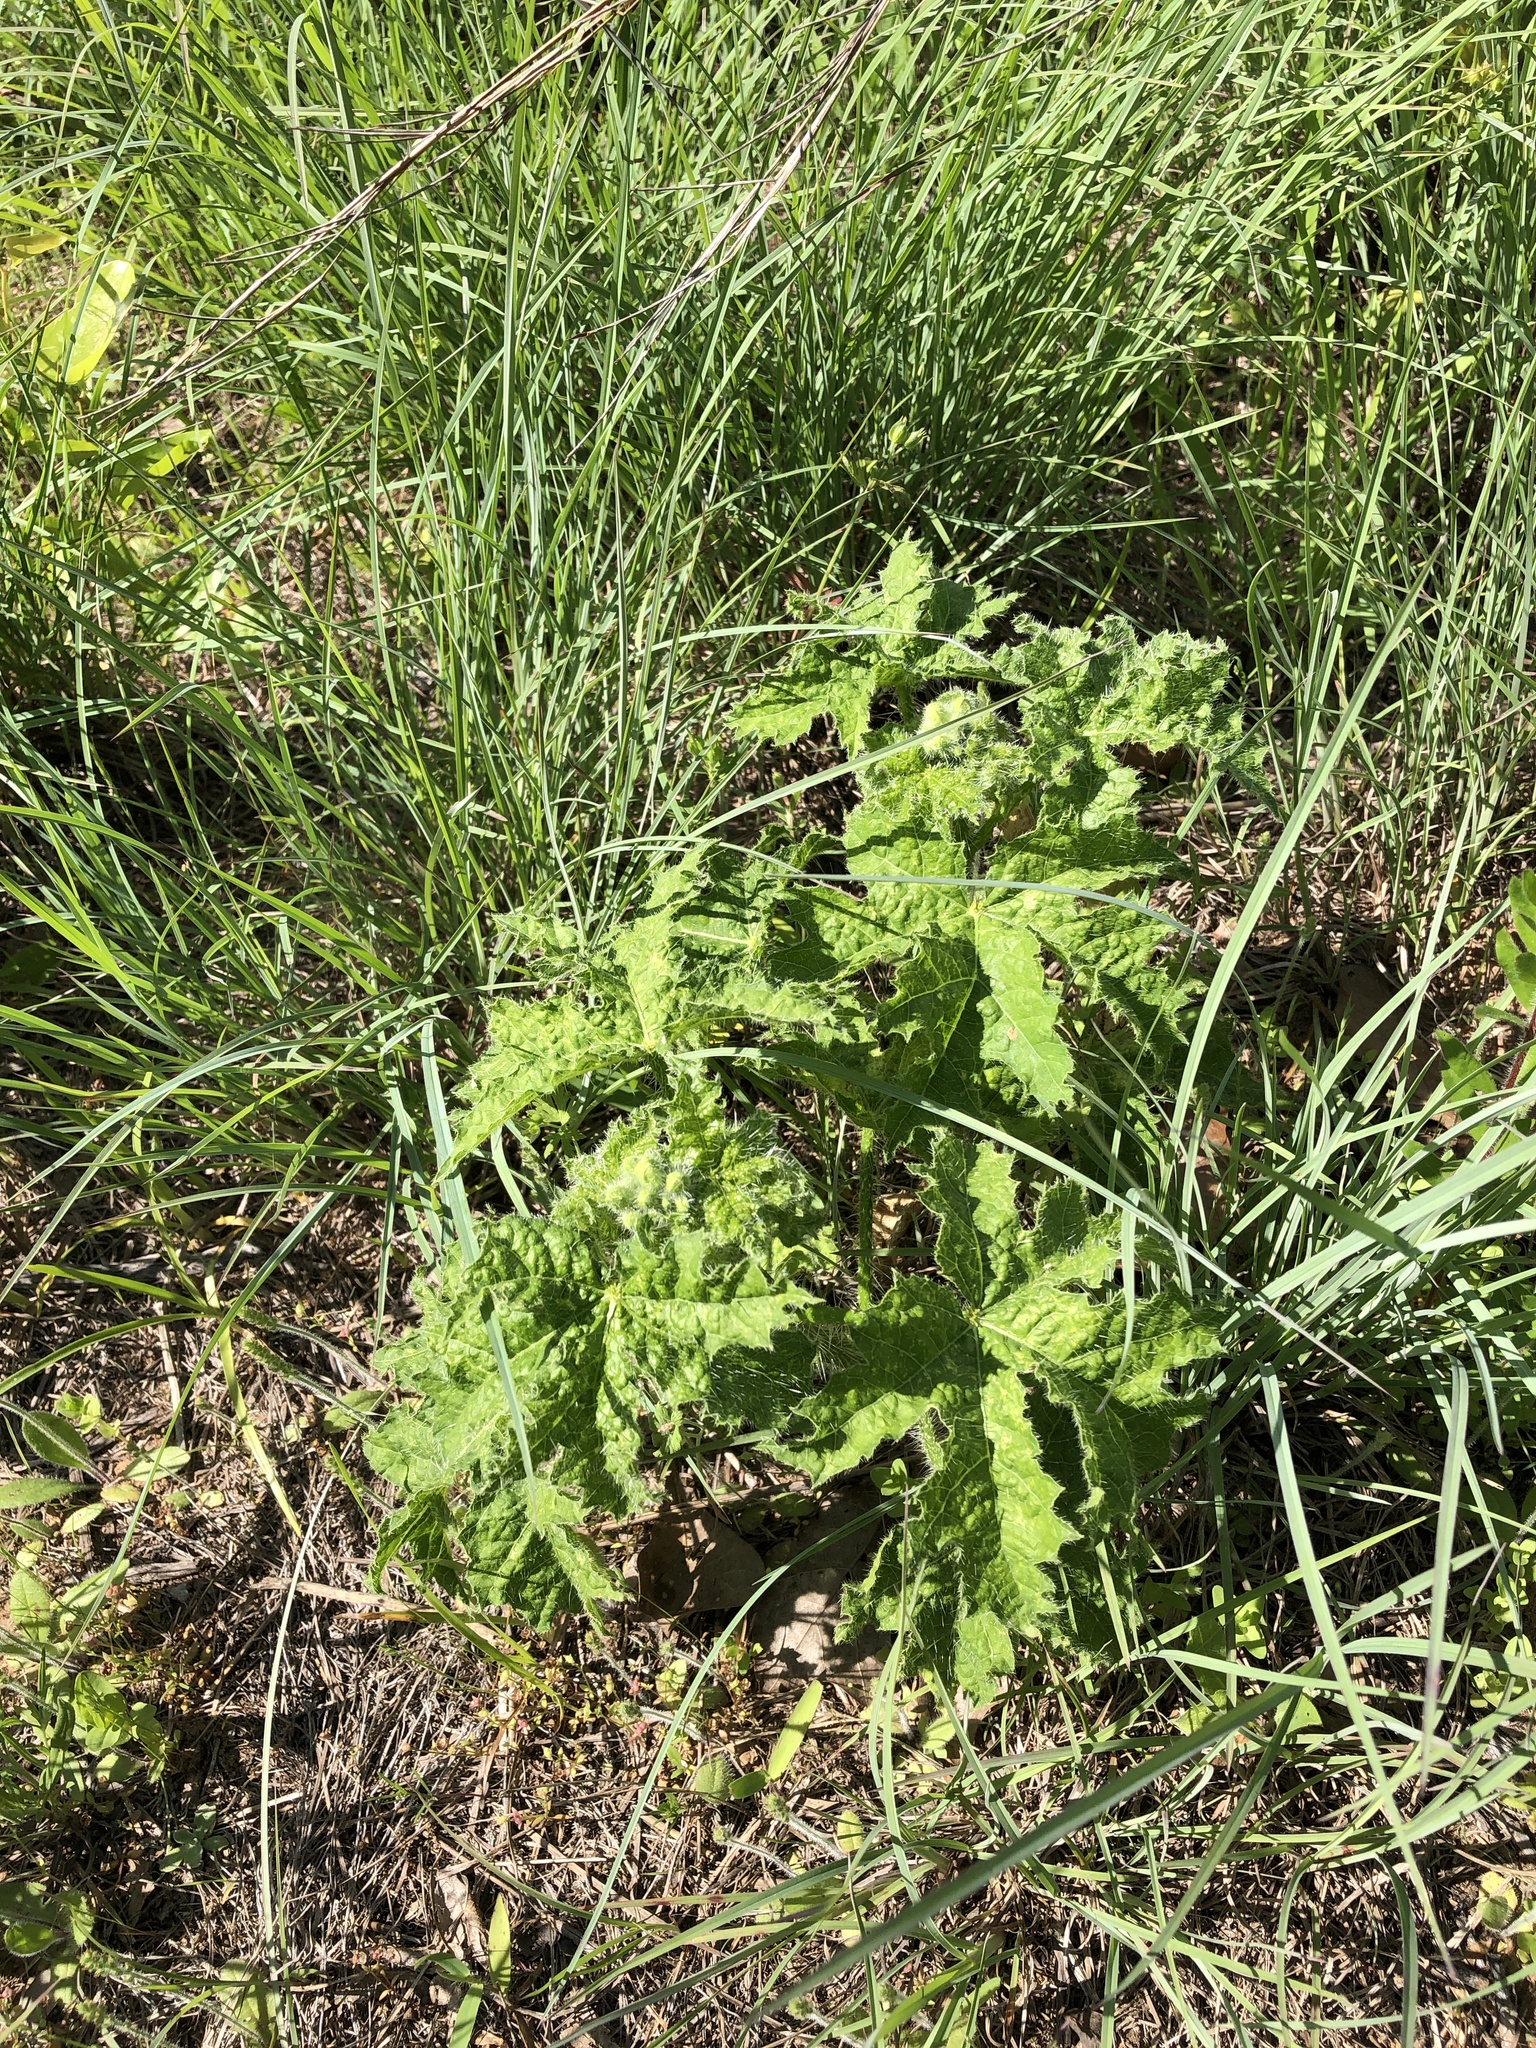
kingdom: Plantae
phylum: Tracheophyta
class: Magnoliopsida
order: Malpighiales
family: Euphorbiaceae
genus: Cnidoscolus
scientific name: Cnidoscolus texanus
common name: Texas bull-nettle
